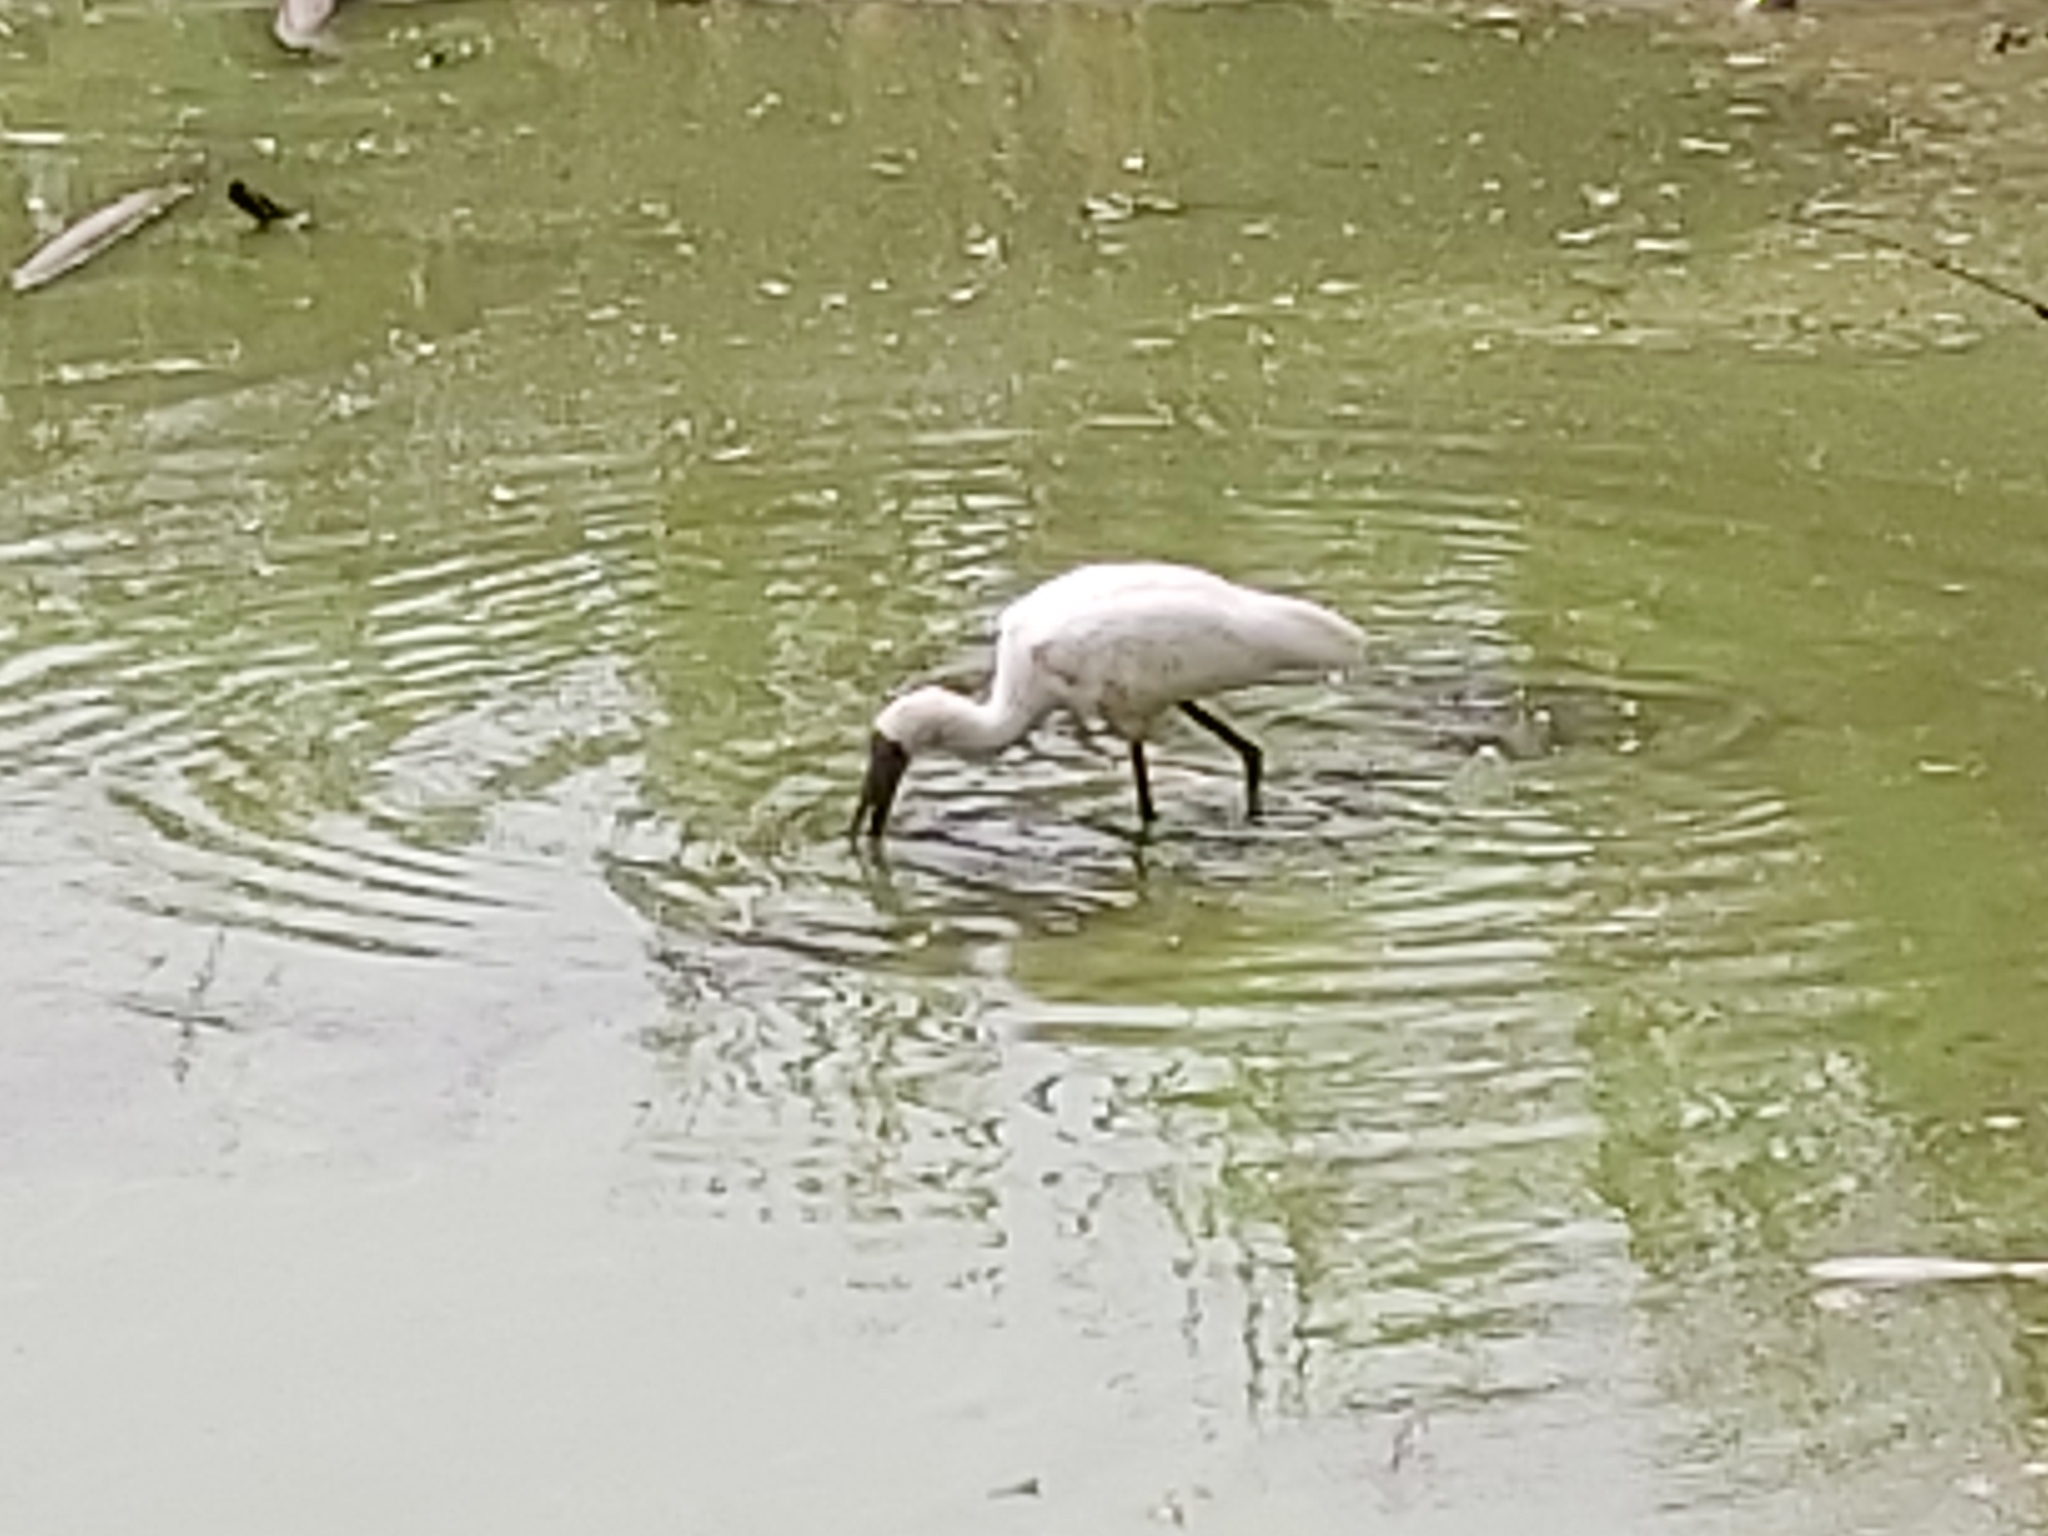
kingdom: Animalia
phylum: Chordata
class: Aves
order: Pelecaniformes
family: Threskiornithidae
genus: Platalea
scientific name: Platalea regia
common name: Royal spoonbill
